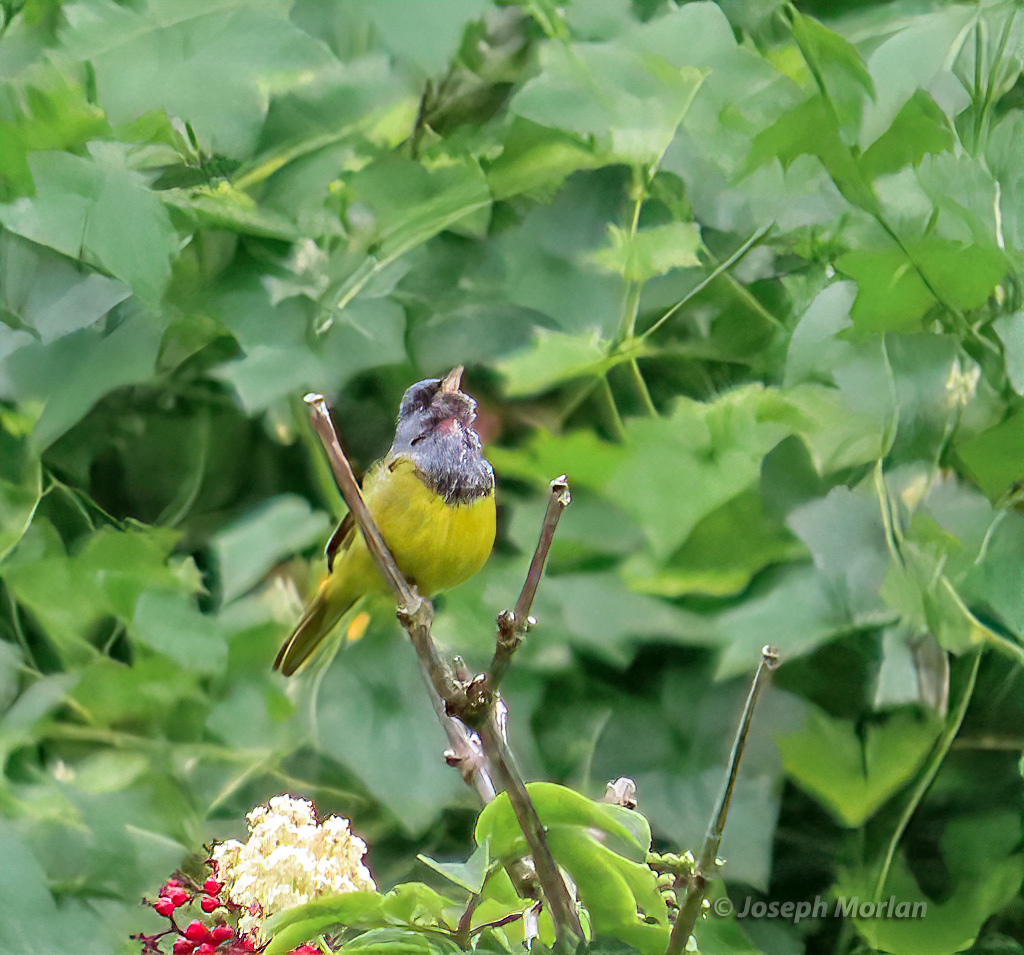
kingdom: Animalia
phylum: Chordata
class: Aves
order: Passeriformes
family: Parulidae
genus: Geothlypis
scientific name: Geothlypis tolmiei
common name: Macgillivray's warbler
